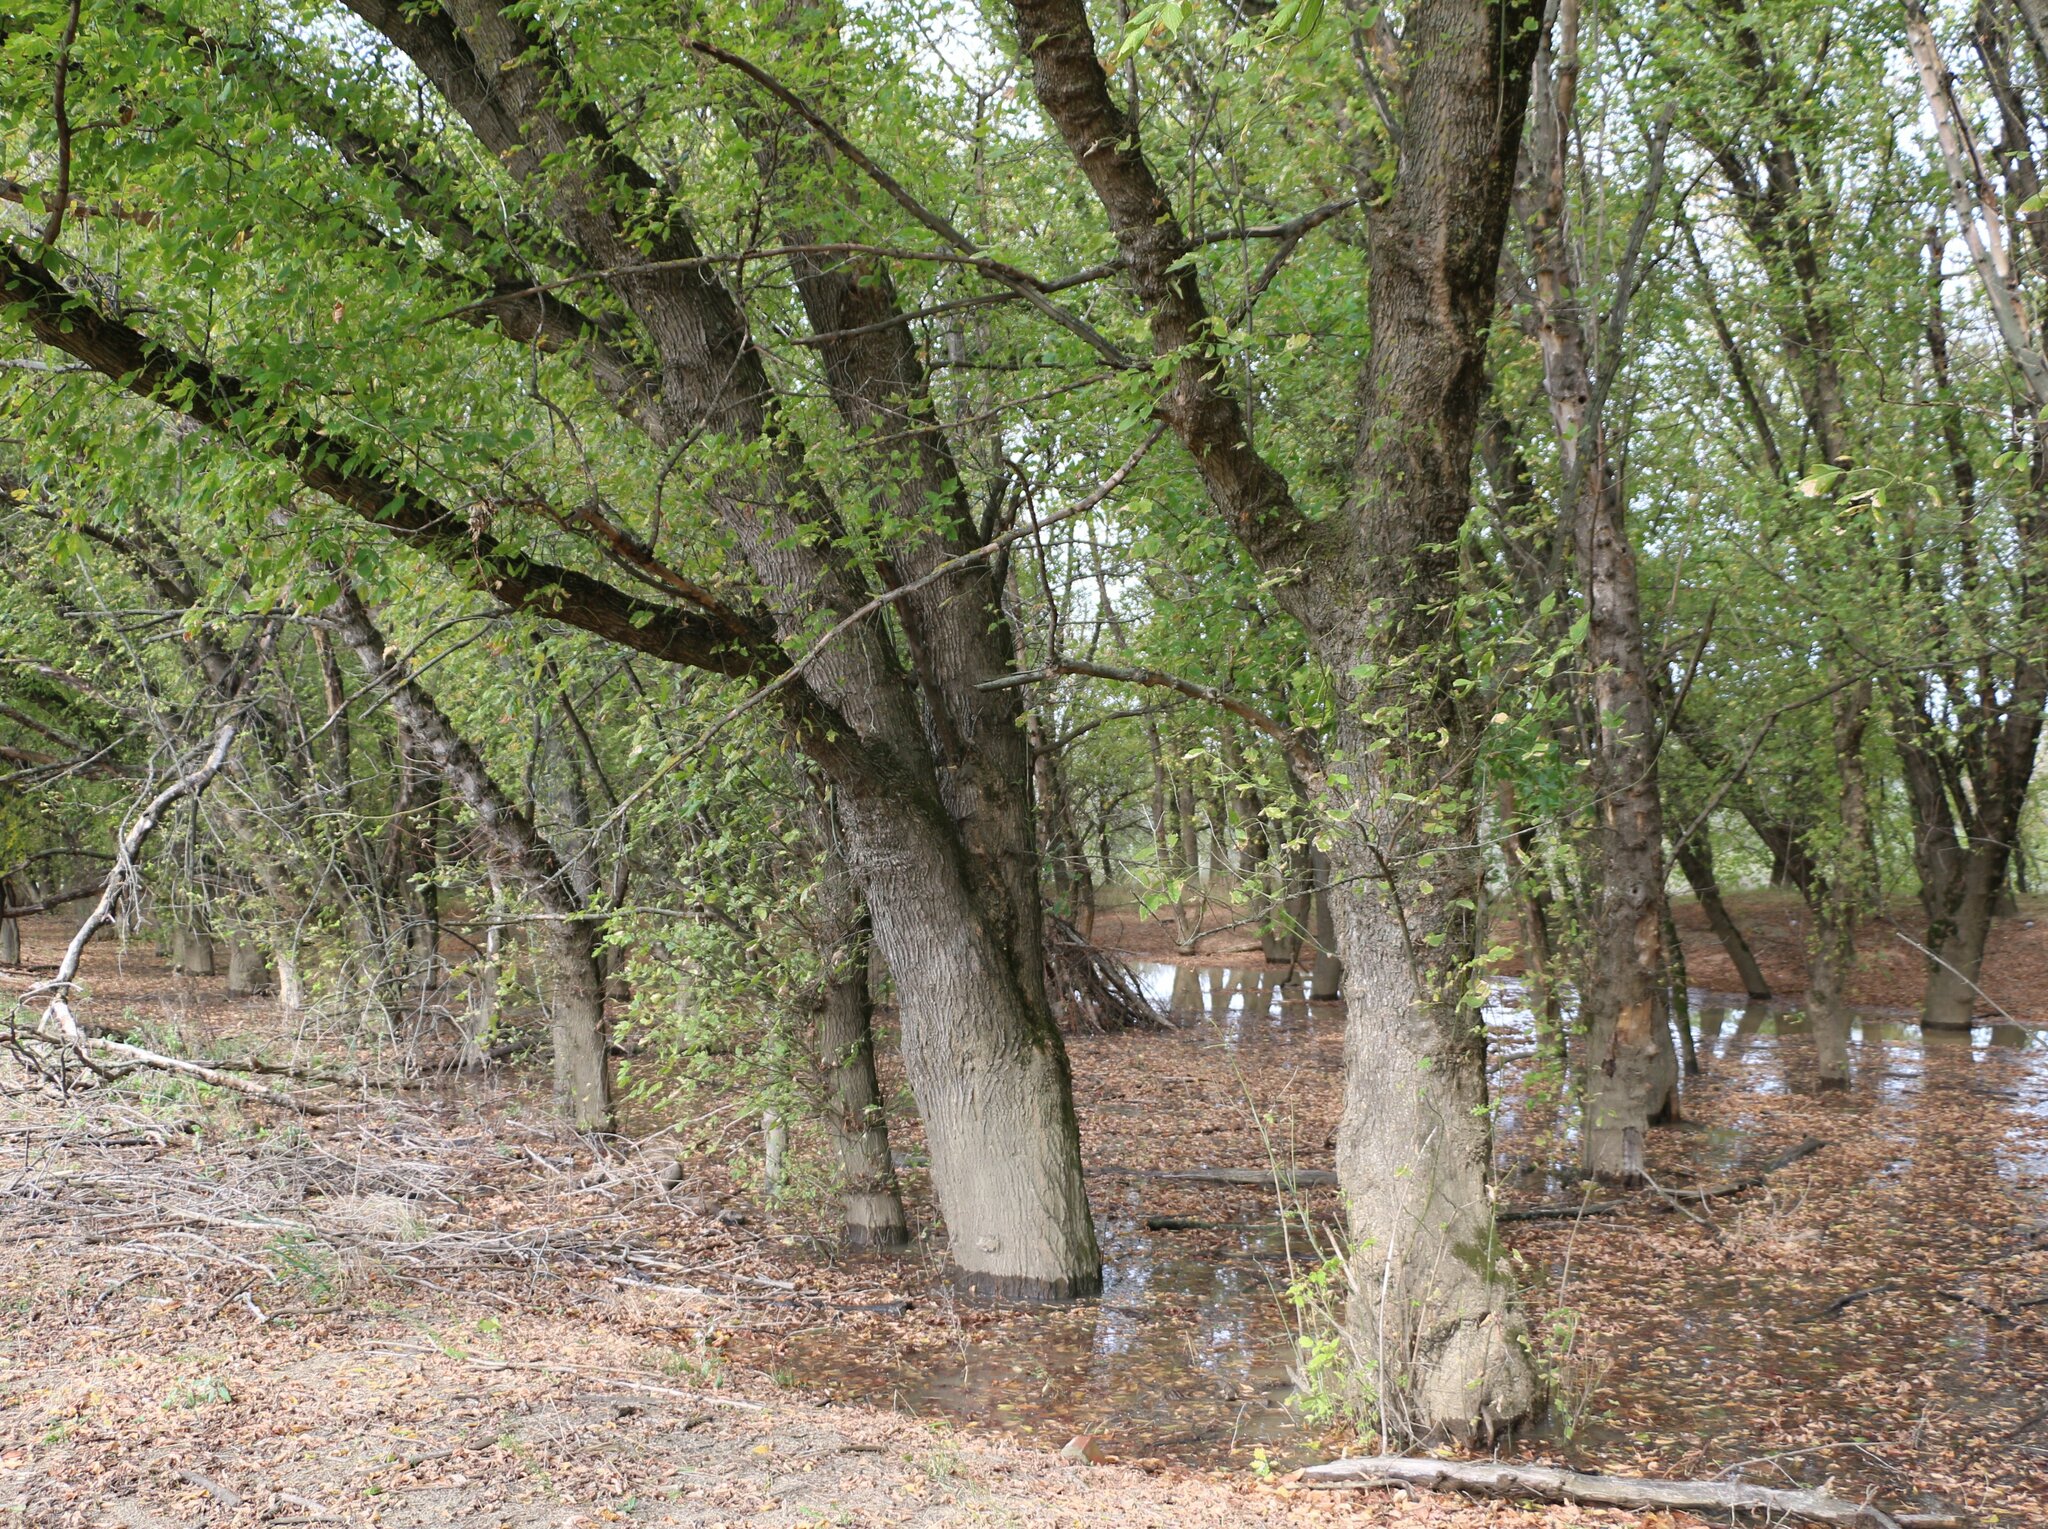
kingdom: Plantae
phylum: Tracheophyta
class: Magnoliopsida
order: Sapindales
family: Sapindaceae
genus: Acer
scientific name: Acer negundo
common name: Ashleaf maple
